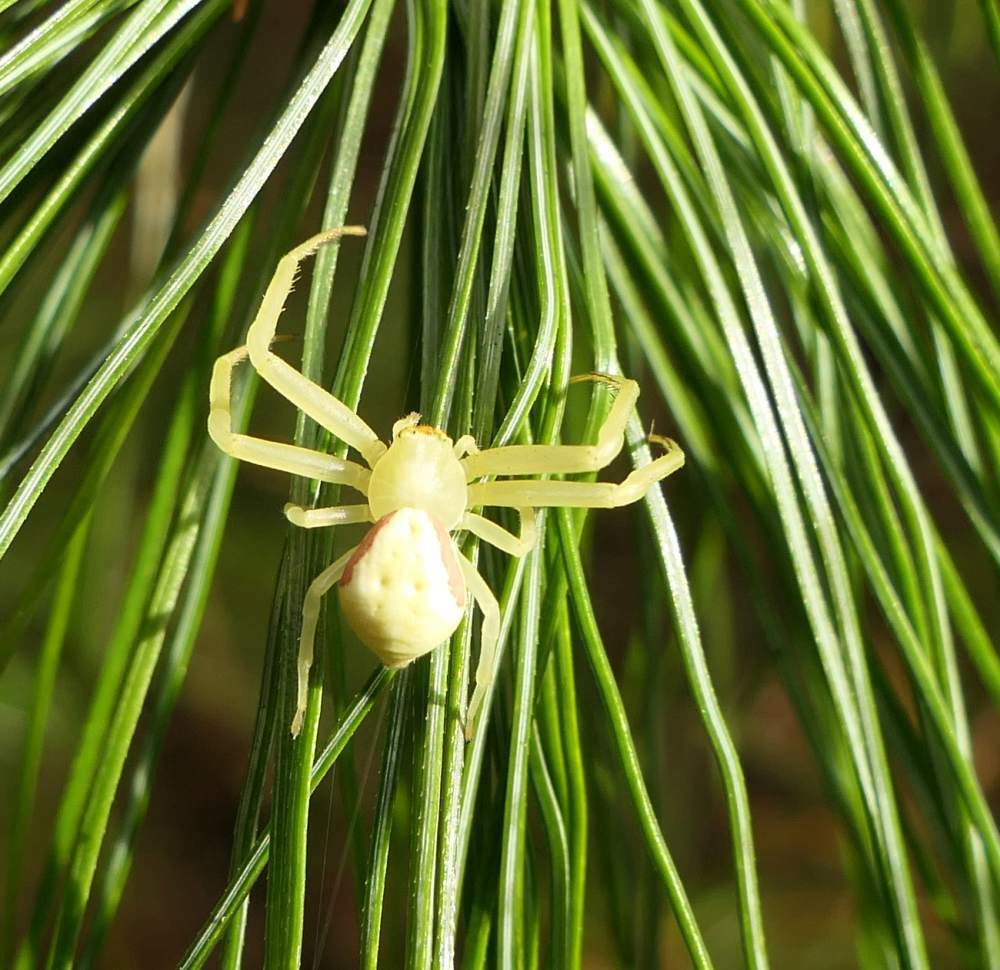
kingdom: Animalia
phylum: Arthropoda
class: Arachnida
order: Araneae
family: Thomisidae
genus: Misumena
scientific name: Misumena vatia
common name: Goldenrod crab spider
